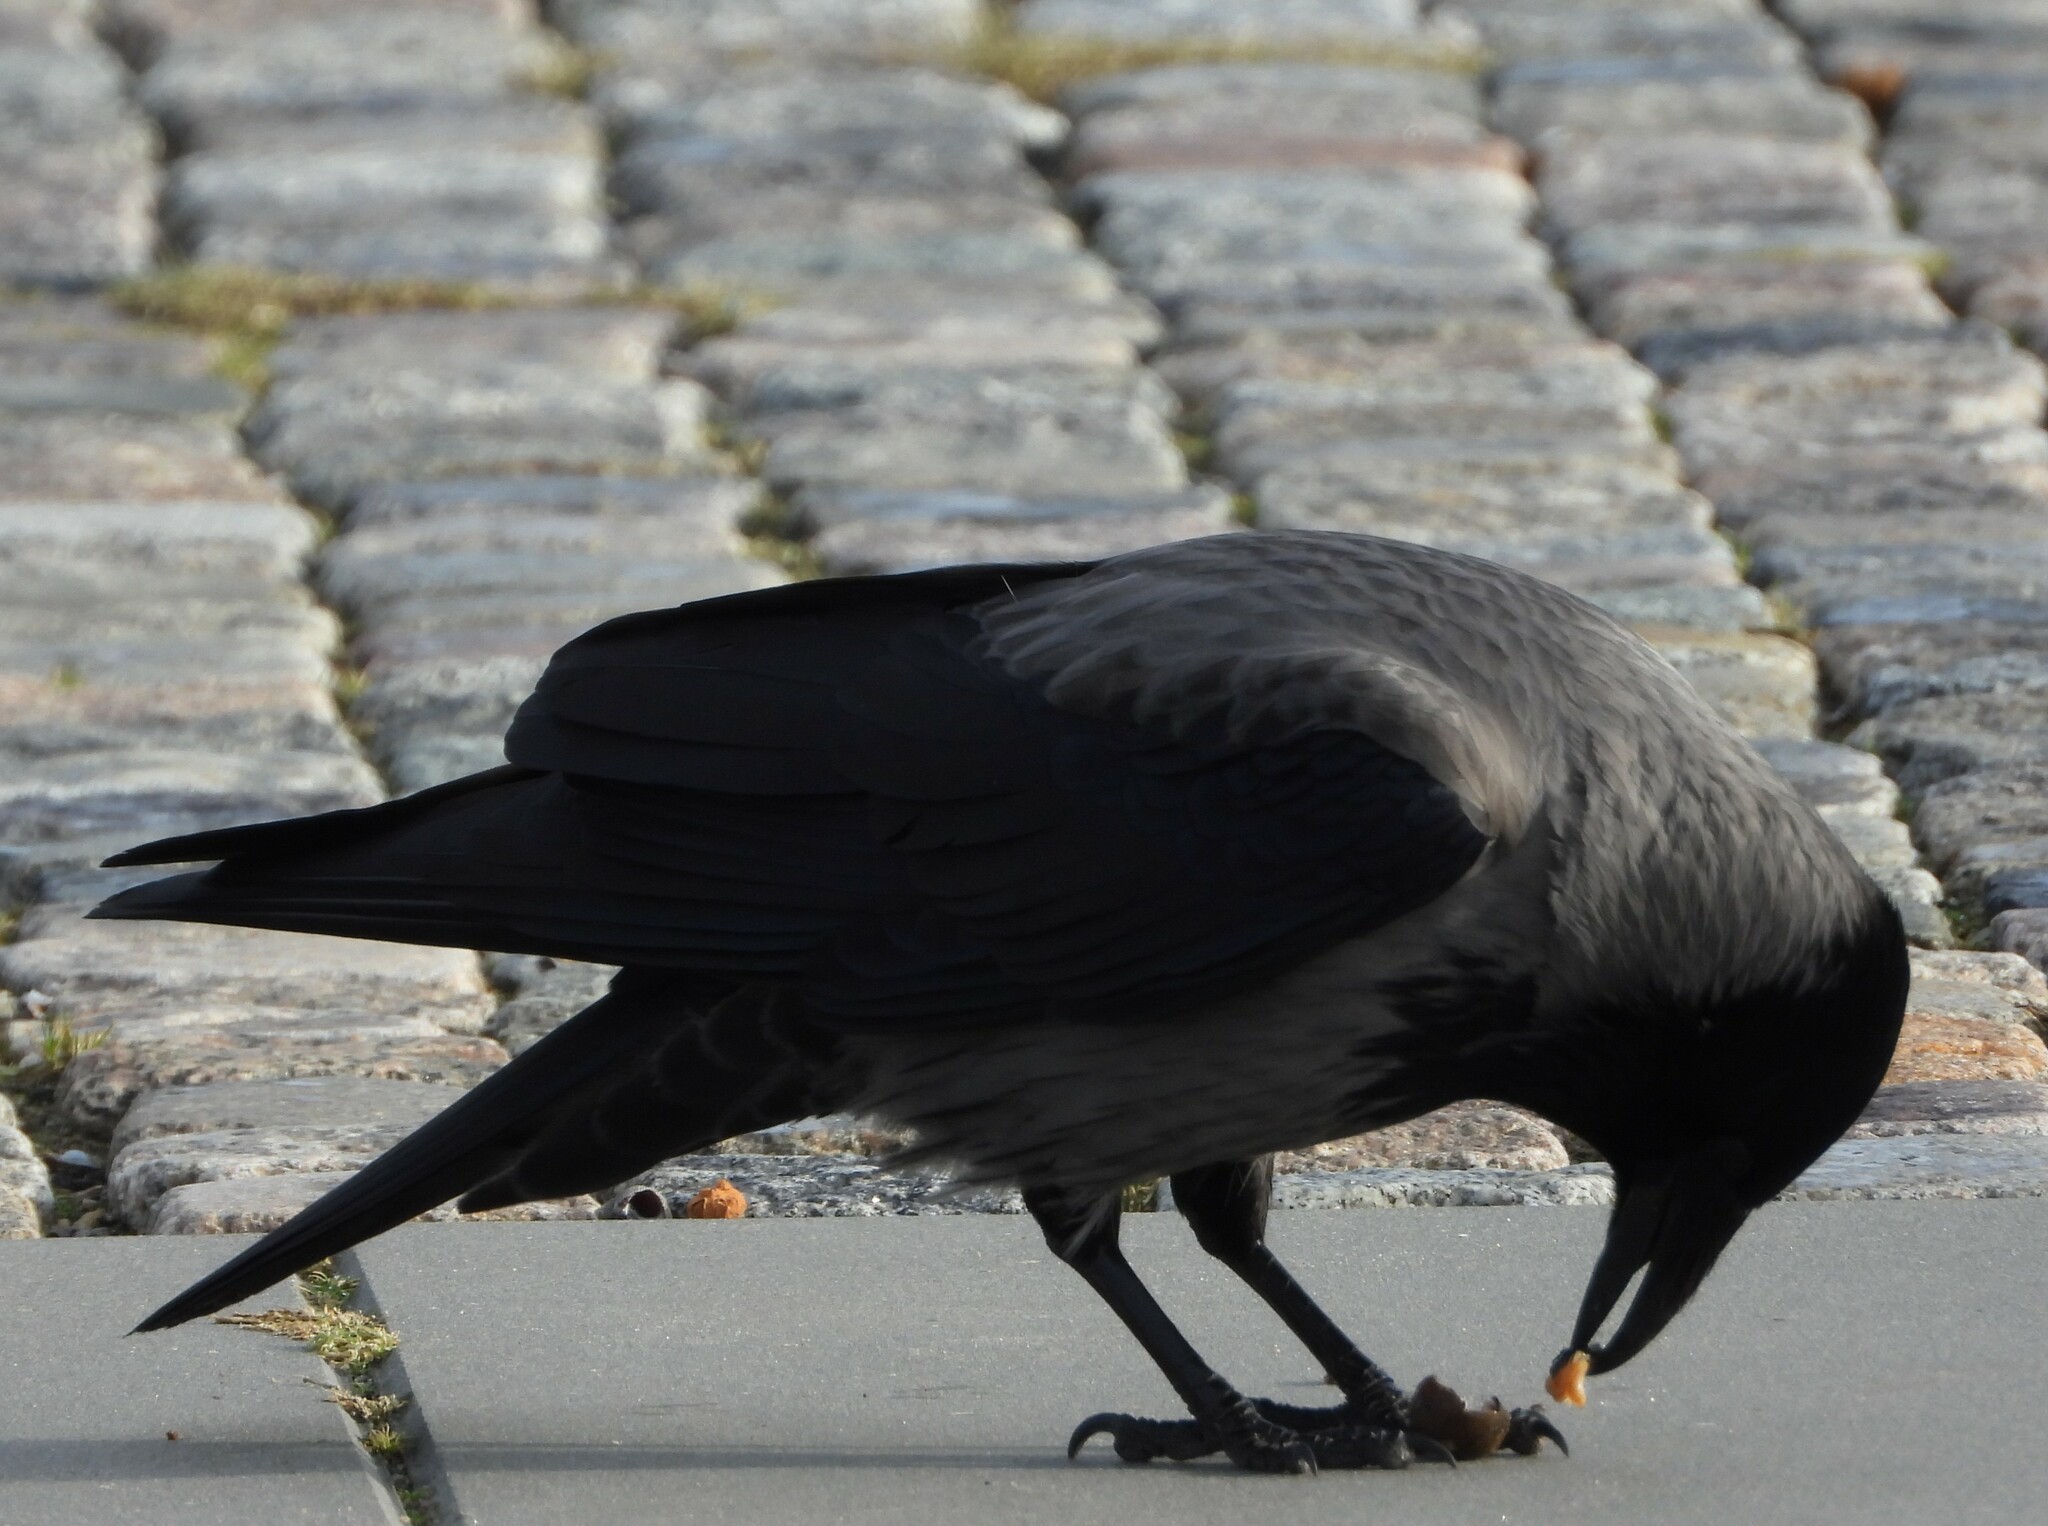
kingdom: Animalia
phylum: Chordata
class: Aves
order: Passeriformes
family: Corvidae
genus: Corvus
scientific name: Corvus
